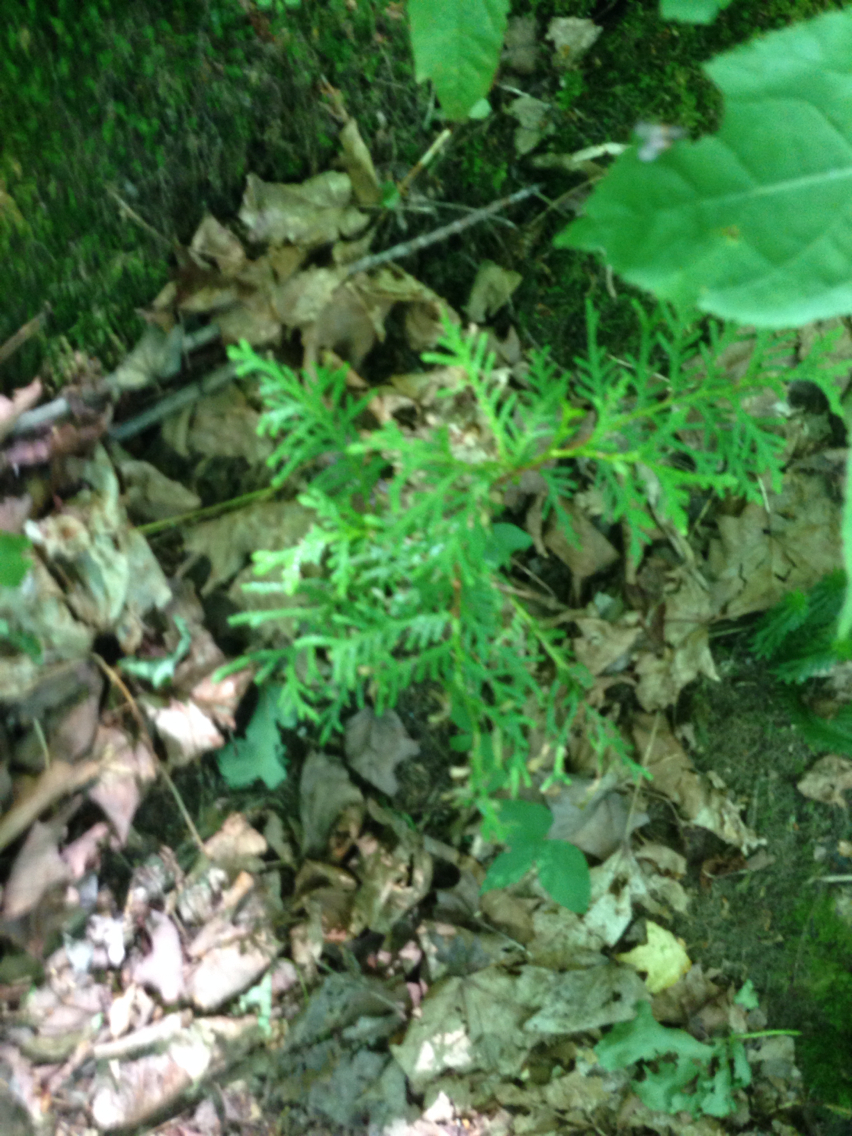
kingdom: Plantae
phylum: Tracheophyta
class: Pinopsida
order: Pinales
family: Cupressaceae
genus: Thuja
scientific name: Thuja occidentalis
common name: Northern white-cedar
